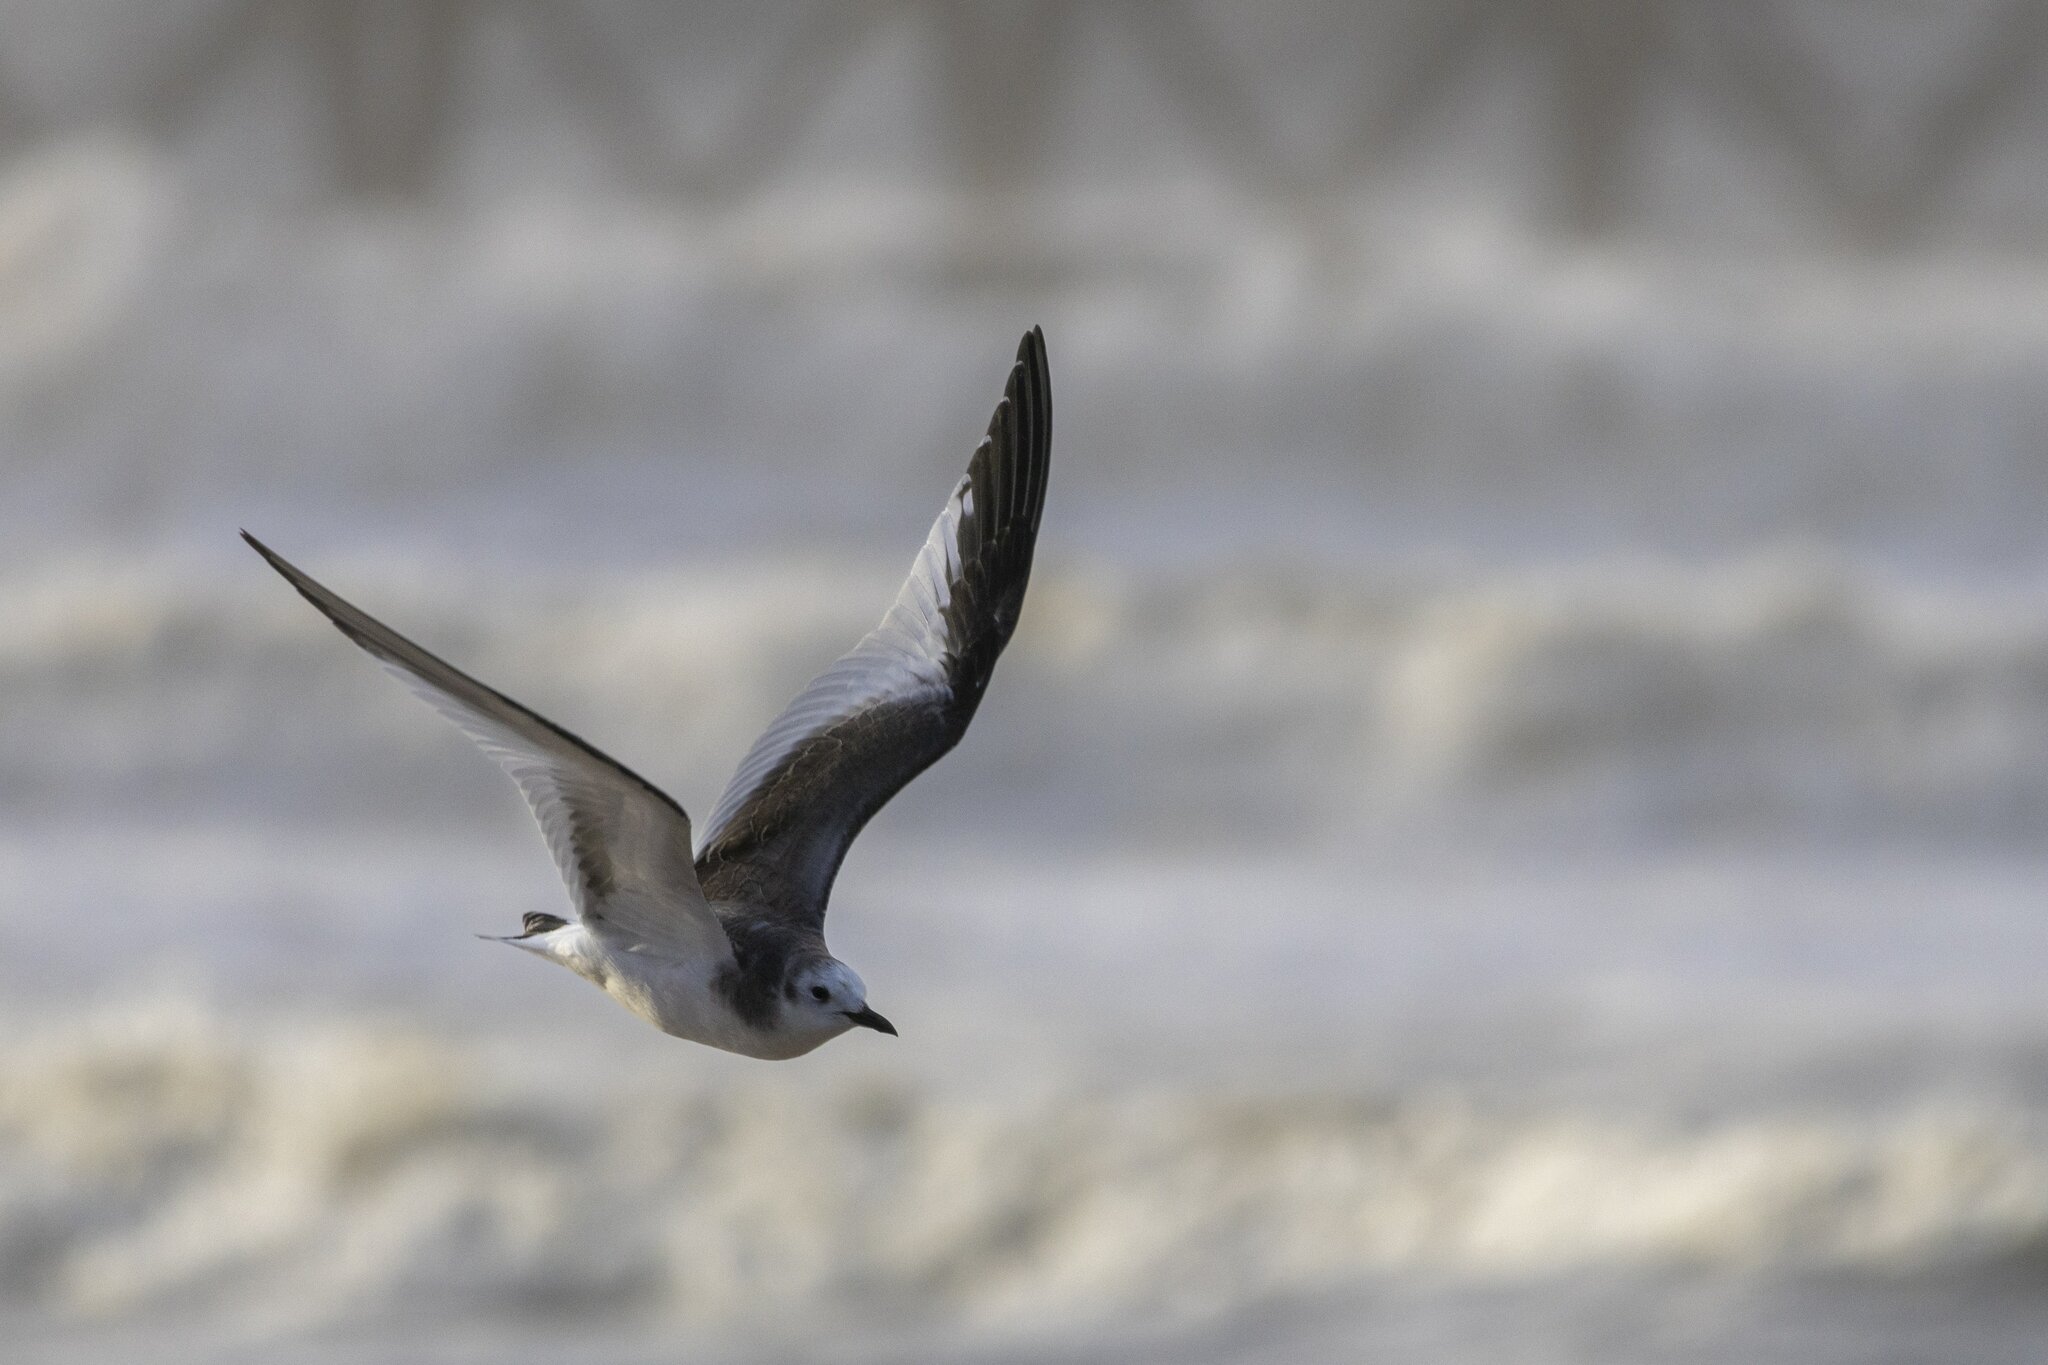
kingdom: Animalia
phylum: Chordata
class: Aves
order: Charadriiformes
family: Laridae
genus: Xema
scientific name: Xema sabini
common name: Sabine's gull
